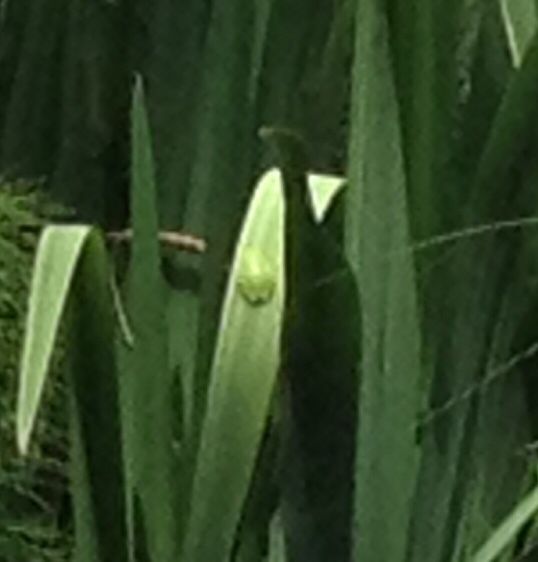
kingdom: Animalia
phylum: Chordata
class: Amphibia
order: Anura
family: Hylidae
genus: Hyla
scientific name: Hyla meridionalis
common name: Stripeless tree frog
